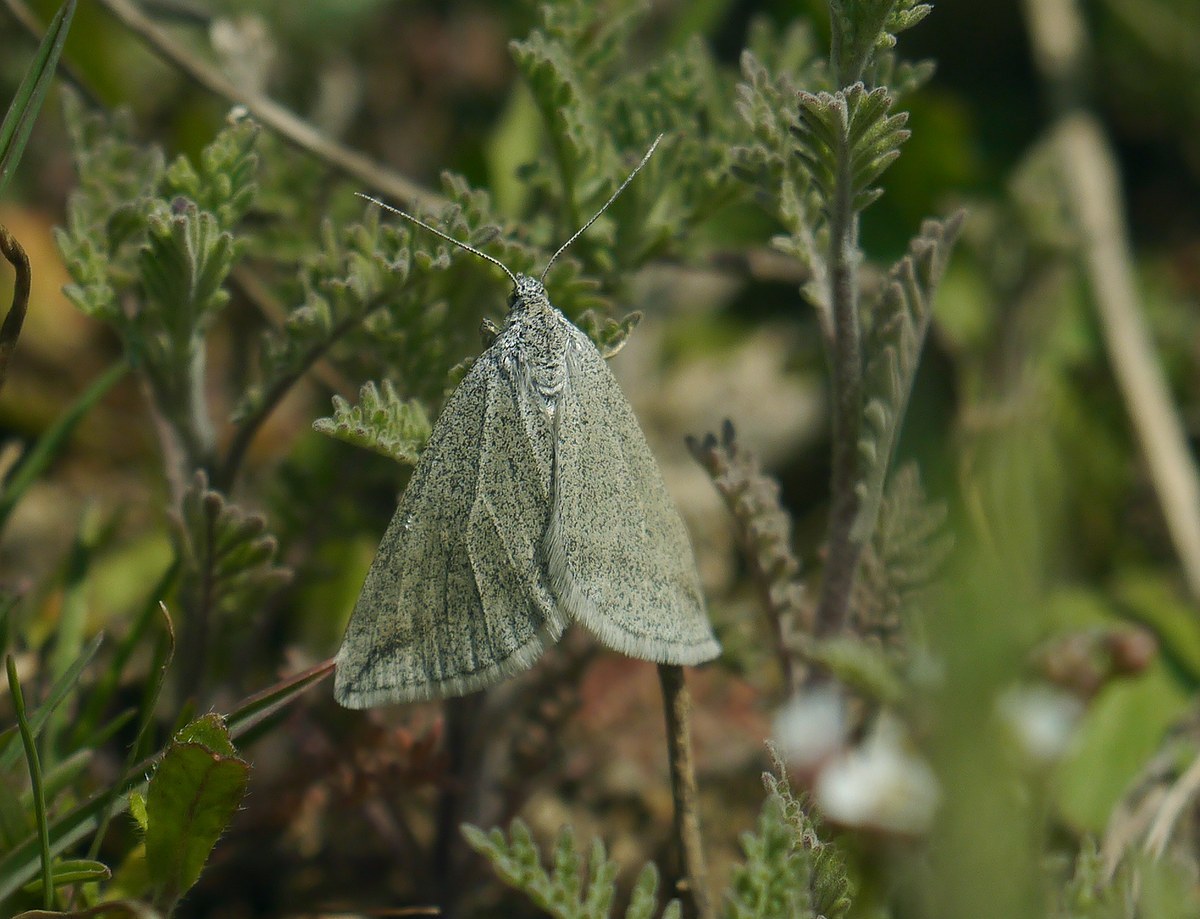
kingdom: Animalia
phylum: Arthropoda
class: Insecta
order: Lepidoptera
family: Geometridae
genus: Lithostege
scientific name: Lithostege griseata
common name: Grey carpet
